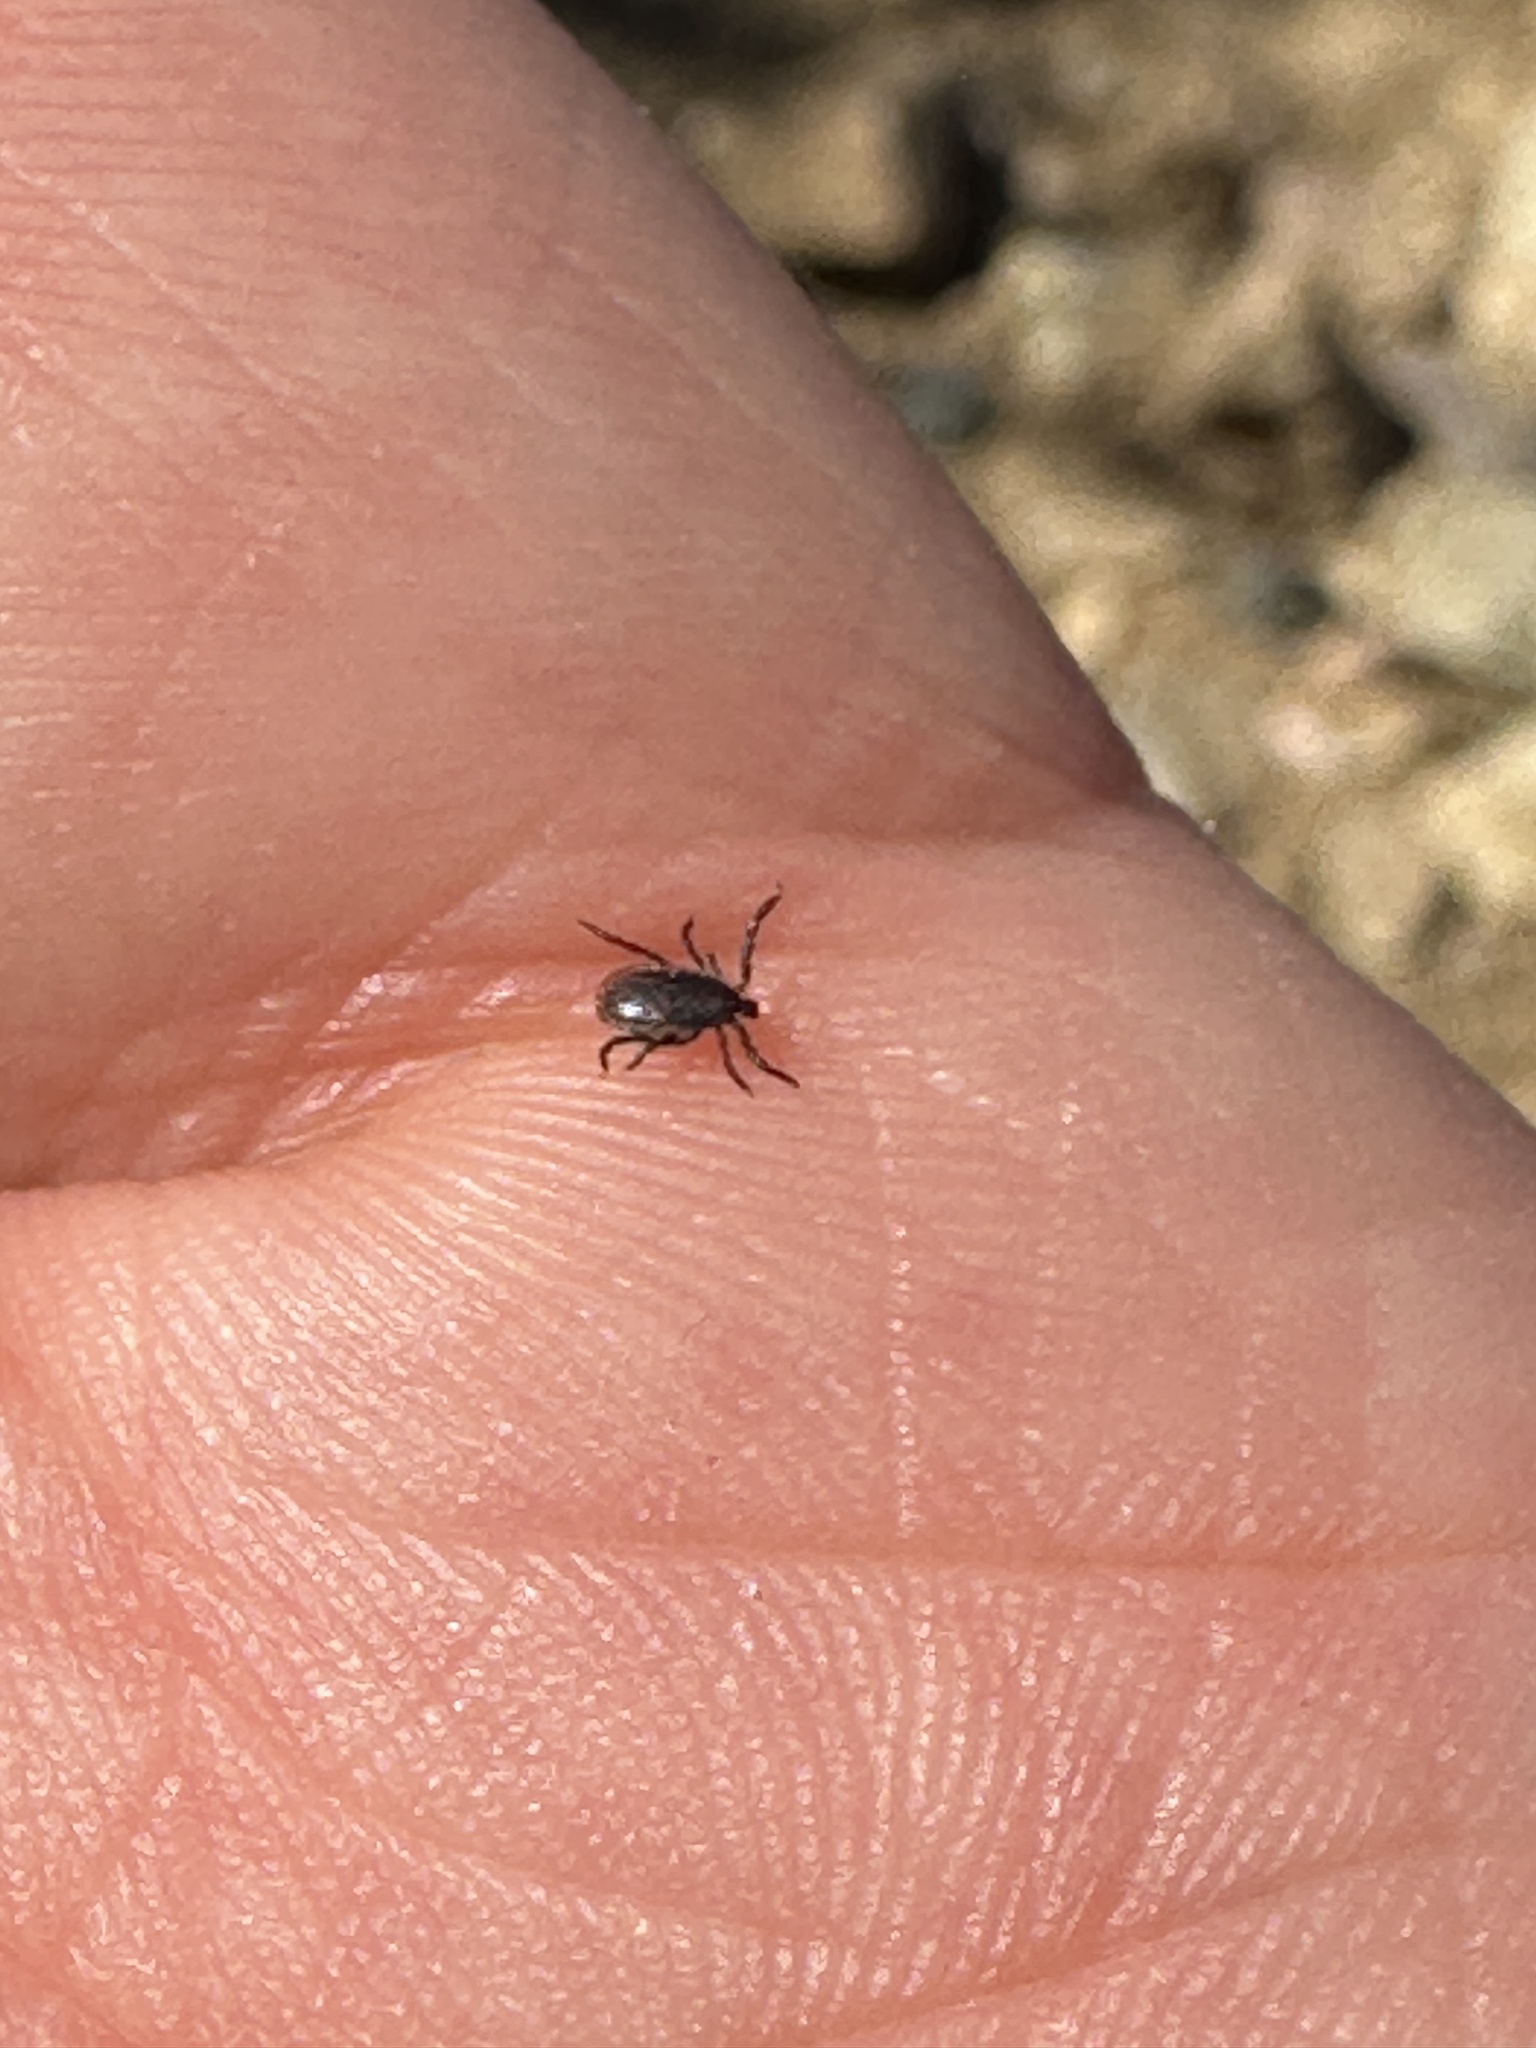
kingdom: Animalia
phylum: Arthropoda
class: Arachnida
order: Ixodida
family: Ixodidae
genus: Ixodes
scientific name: Ixodes pacificus
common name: California black-legged tick
